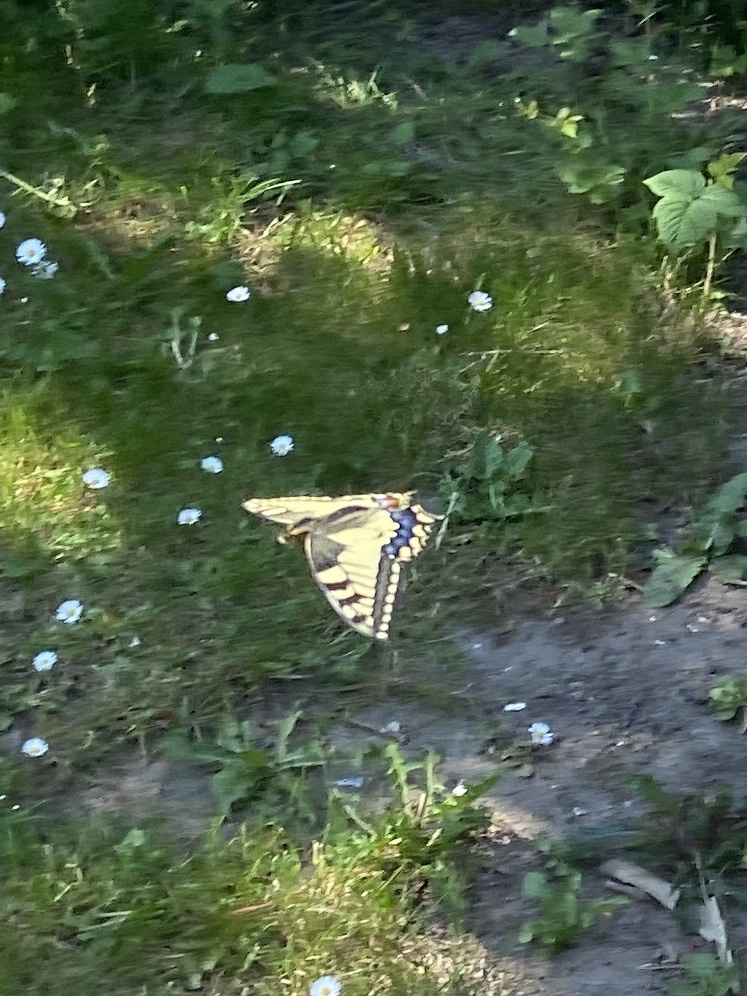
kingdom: Animalia
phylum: Arthropoda
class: Insecta
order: Lepidoptera
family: Papilionidae
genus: Papilio
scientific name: Papilio machaon
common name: Swallowtail
